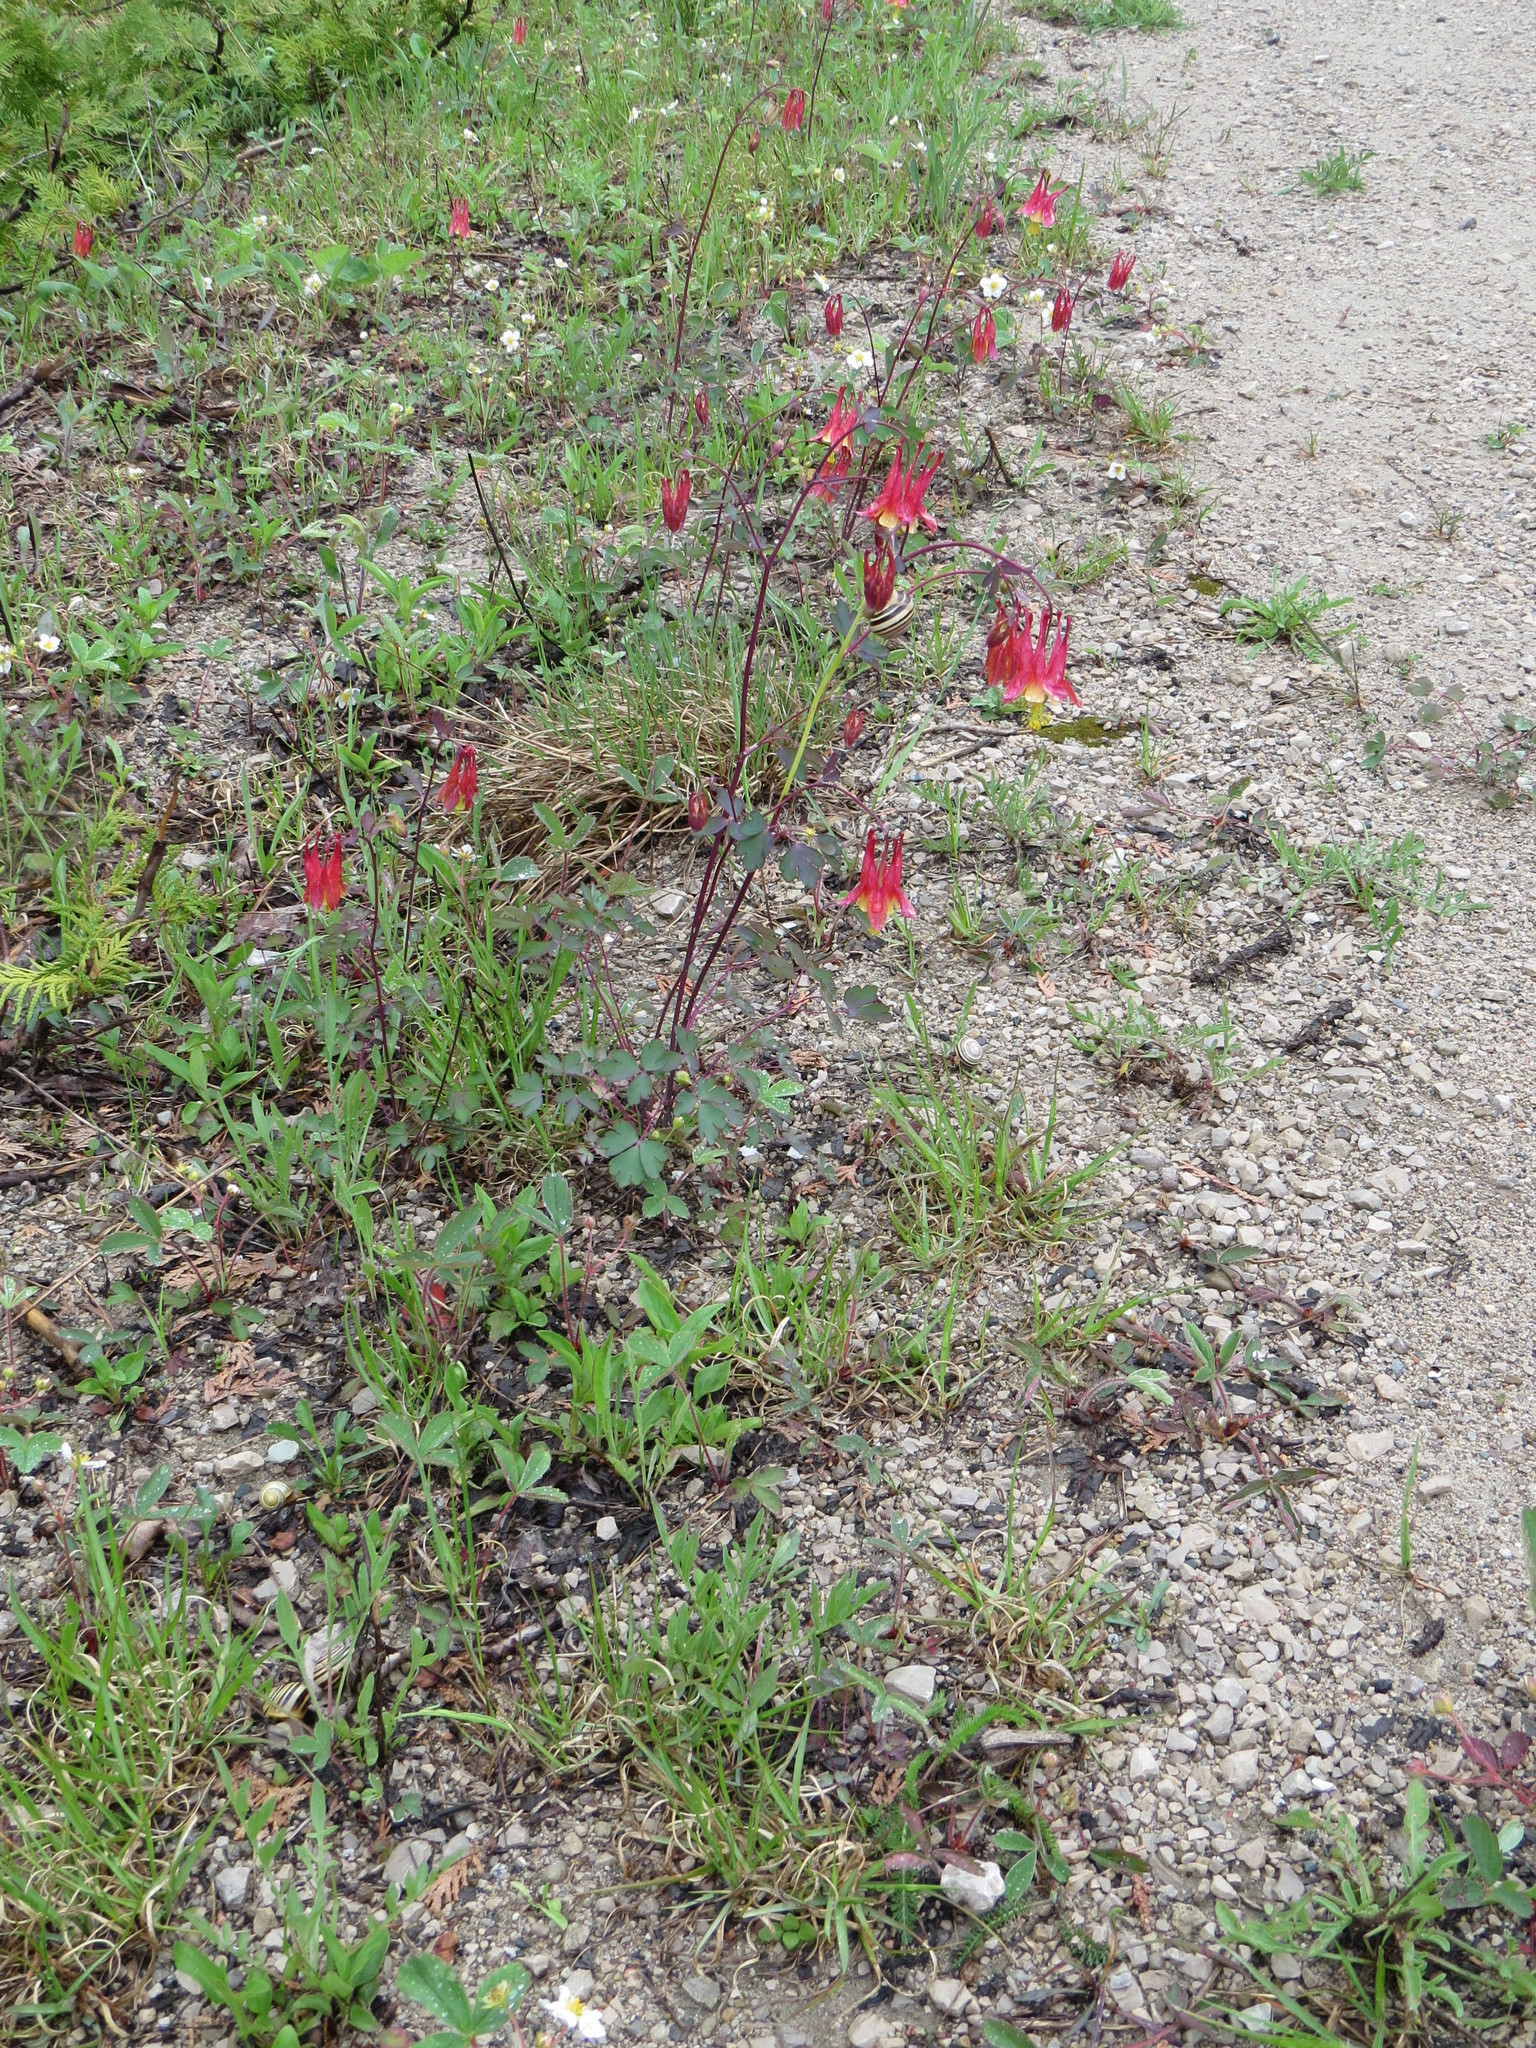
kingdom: Plantae
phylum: Tracheophyta
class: Magnoliopsida
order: Ranunculales
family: Ranunculaceae
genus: Aquilegia
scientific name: Aquilegia canadensis
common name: American columbine
